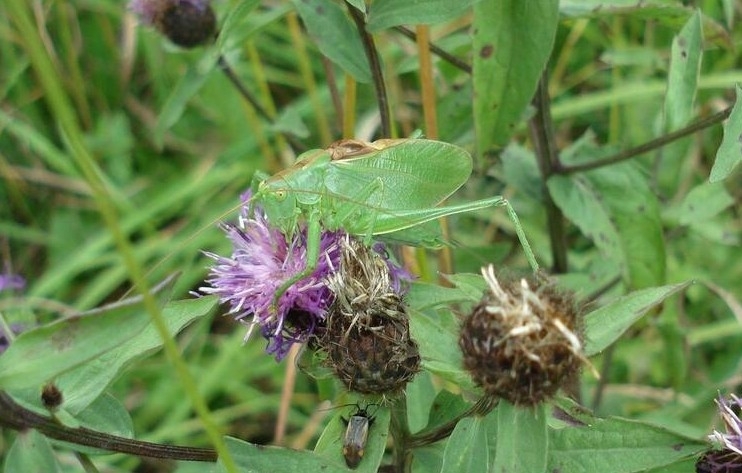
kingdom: Animalia
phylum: Arthropoda
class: Insecta
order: Orthoptera
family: Tettigoniidae
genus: Tettigonia
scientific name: Tettigonia cantans
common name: Upland green bush-cricket
